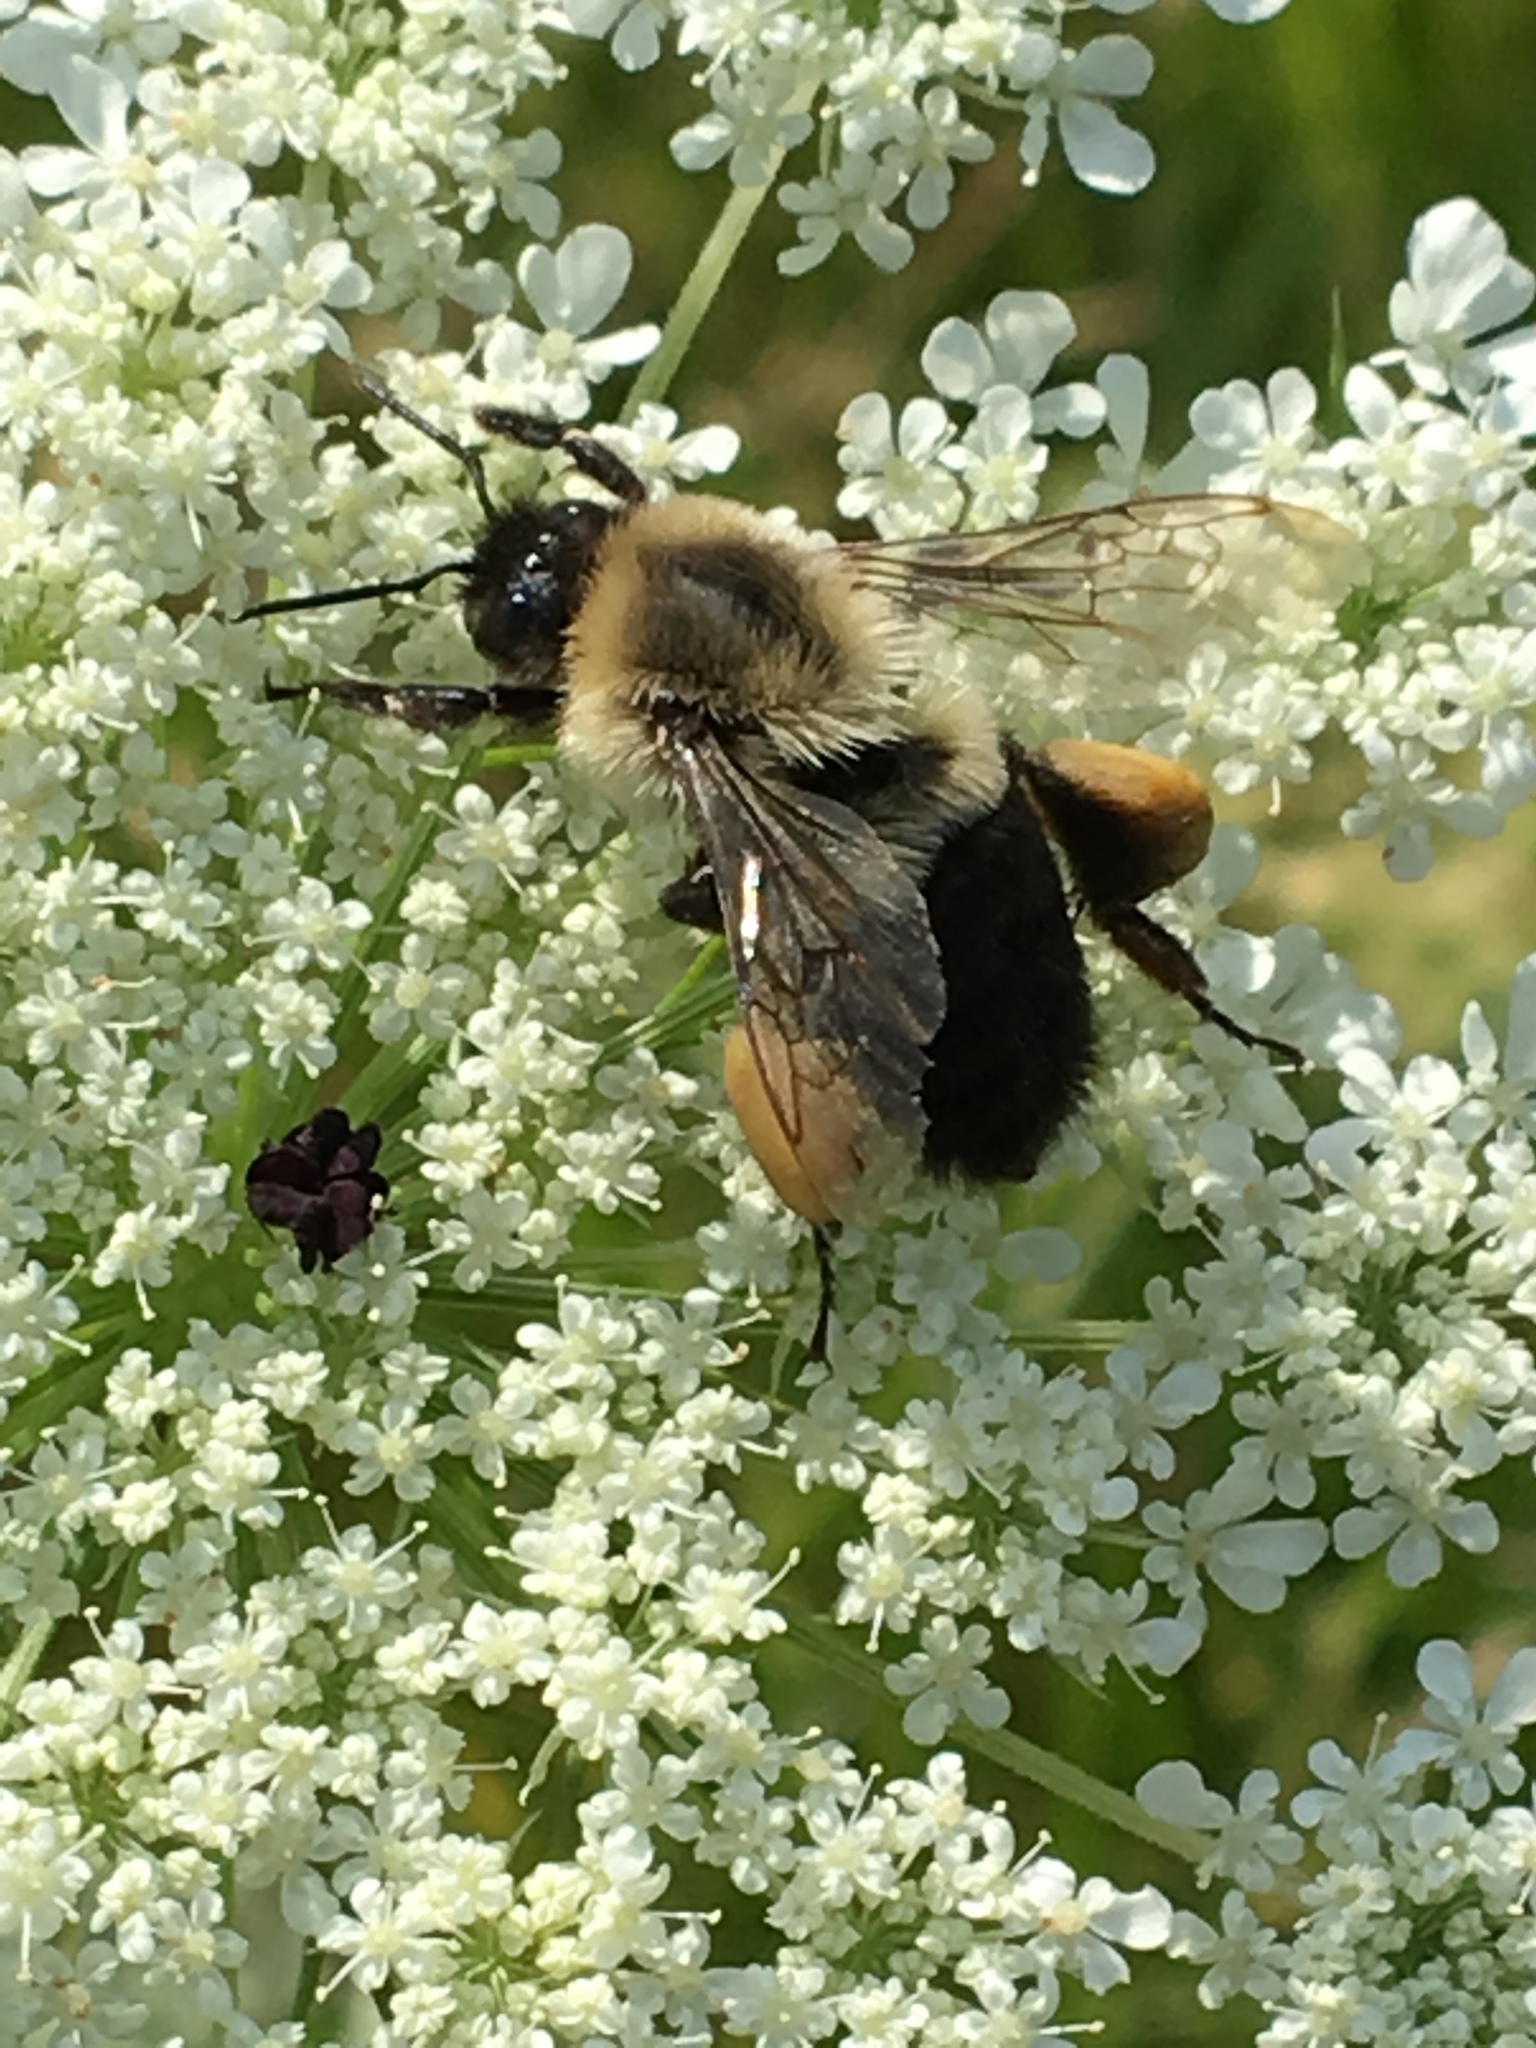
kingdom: Animalia
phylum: Arthropoda
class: Insecta
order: Hymenoptera
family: Apidae
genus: Bombus
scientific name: Bombus impatiens
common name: Common eastern bumble bee
